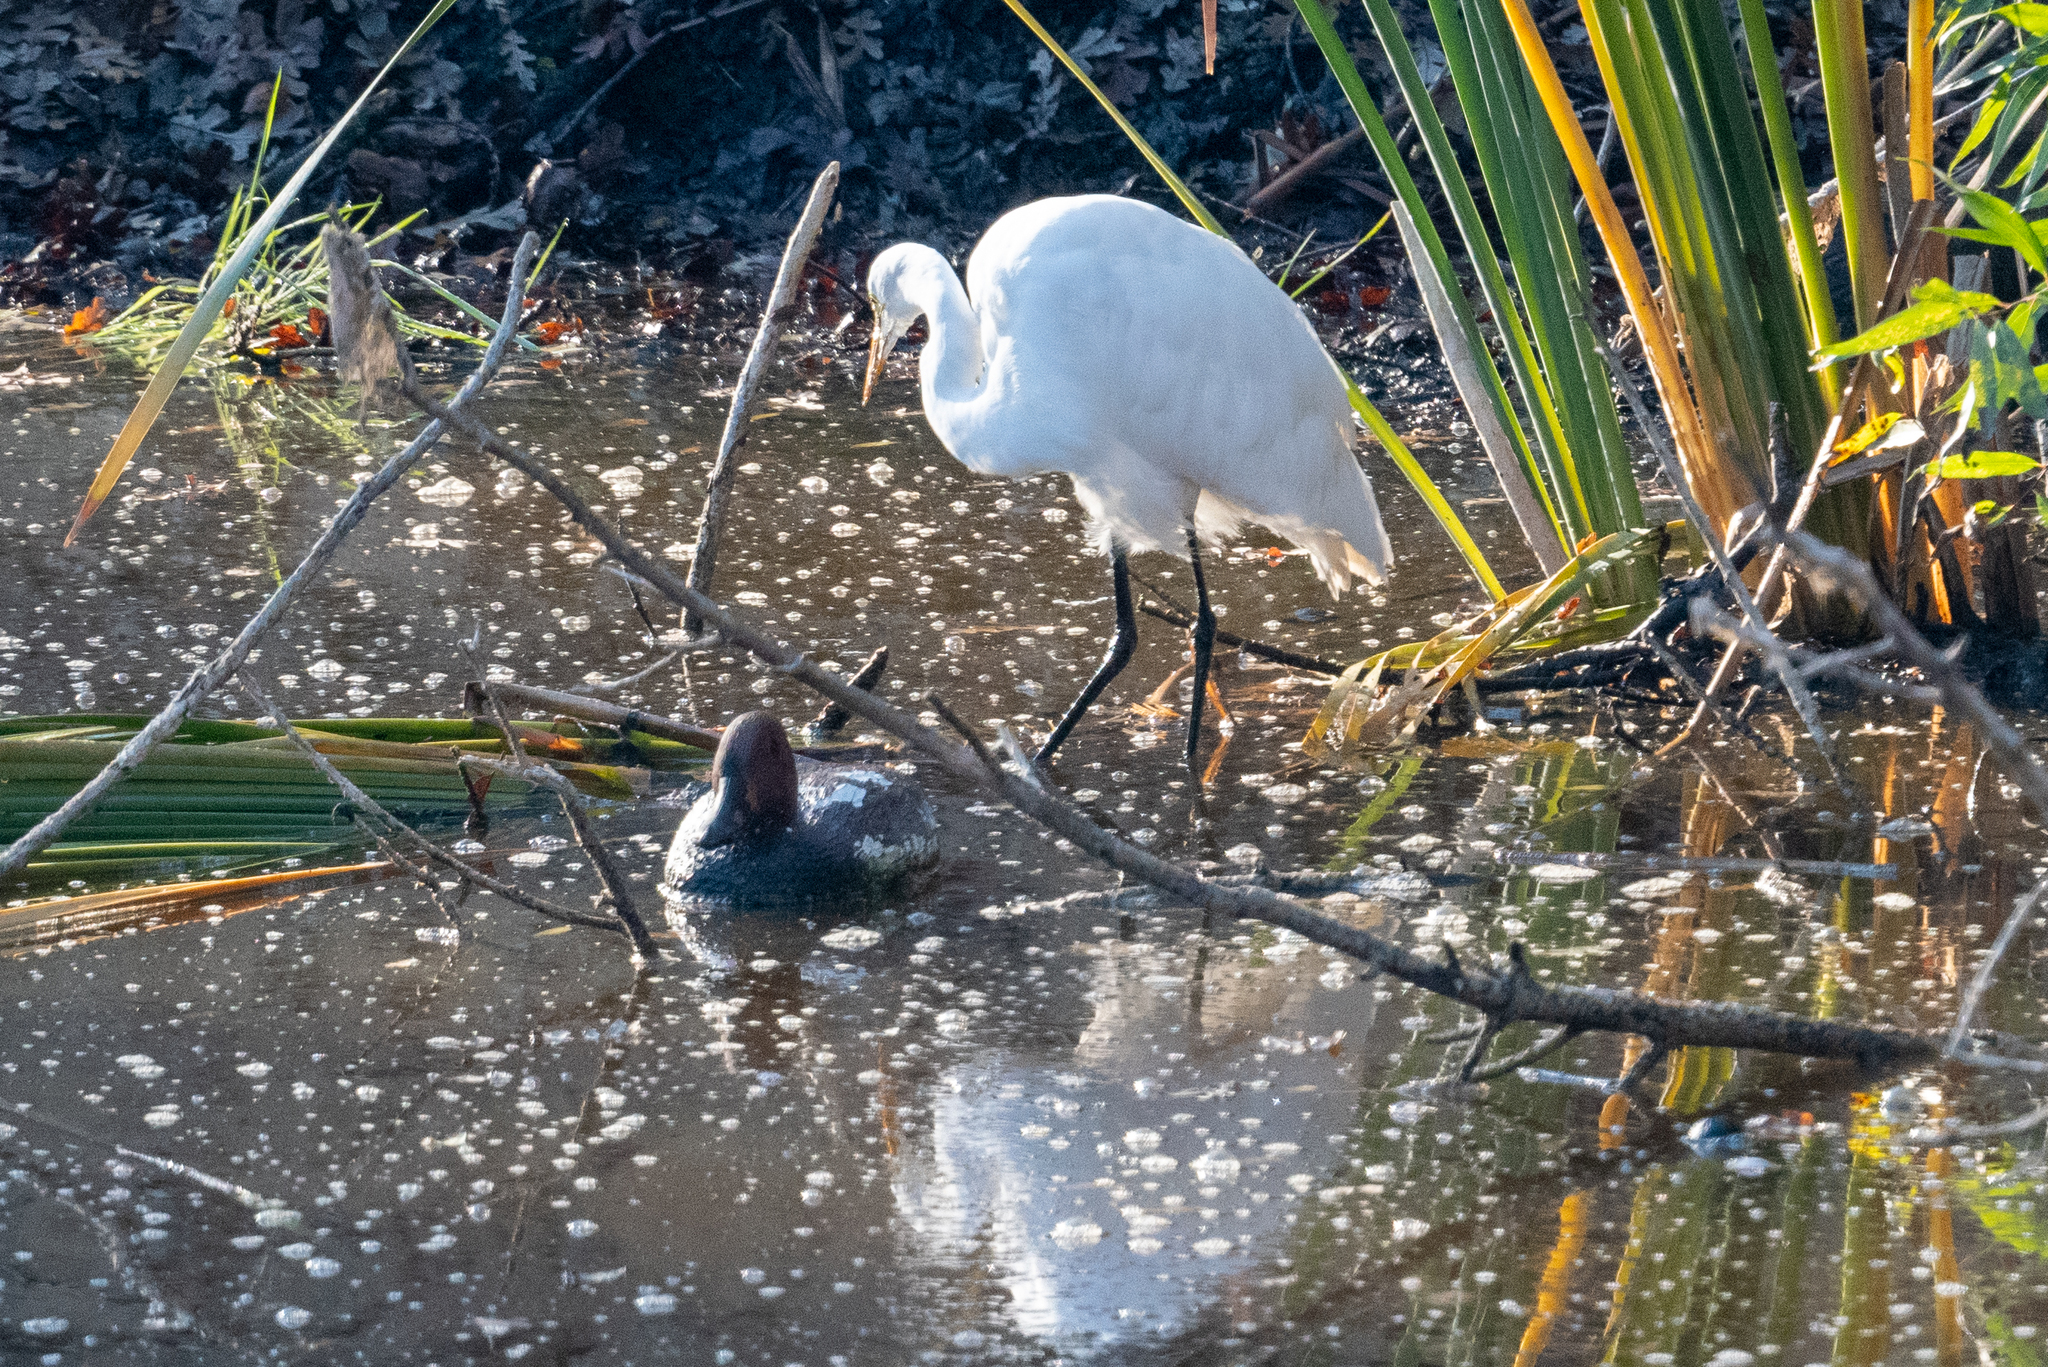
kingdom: Animalia
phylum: Chordata
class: Aves
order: Pelecaniformes
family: Ardeidae
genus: Ardea
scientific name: Ardea alba
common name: Great egret
